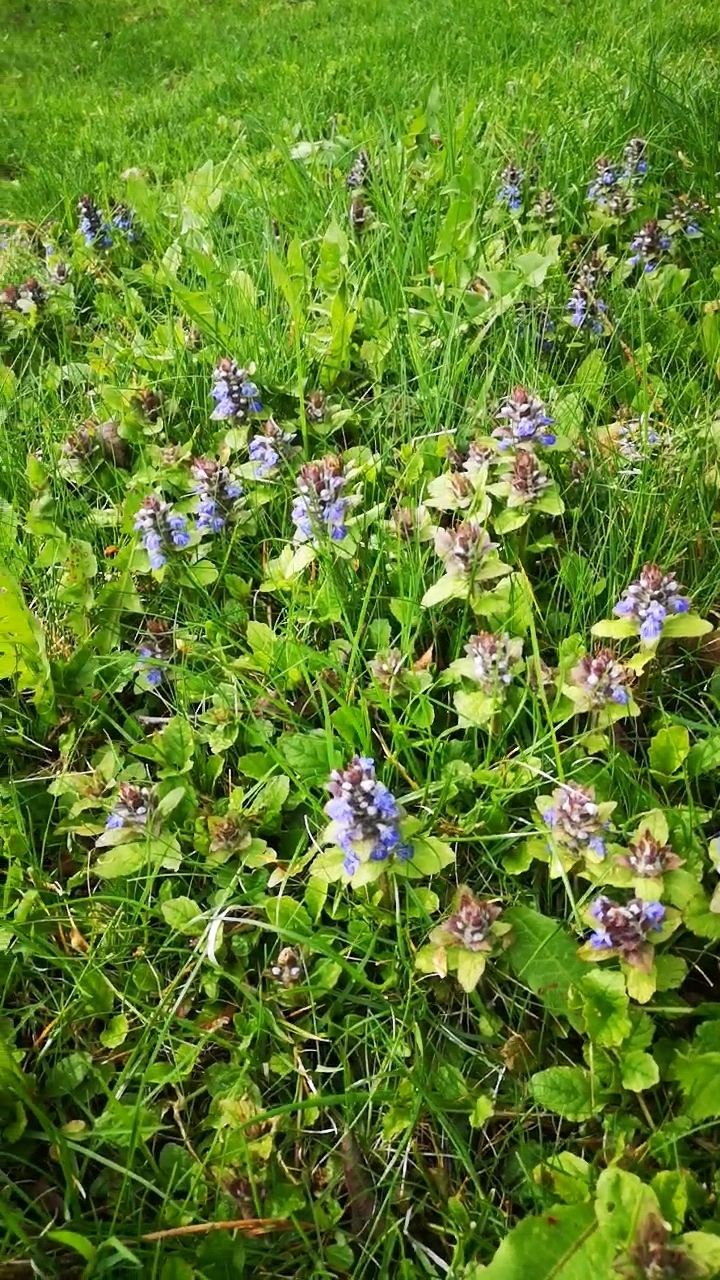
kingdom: Plantae
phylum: Tracheophyta
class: Magnoliopsida
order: Lamiales
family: Lamiaceae
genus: Ajuga
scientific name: Ajuga reptans
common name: Bugle
